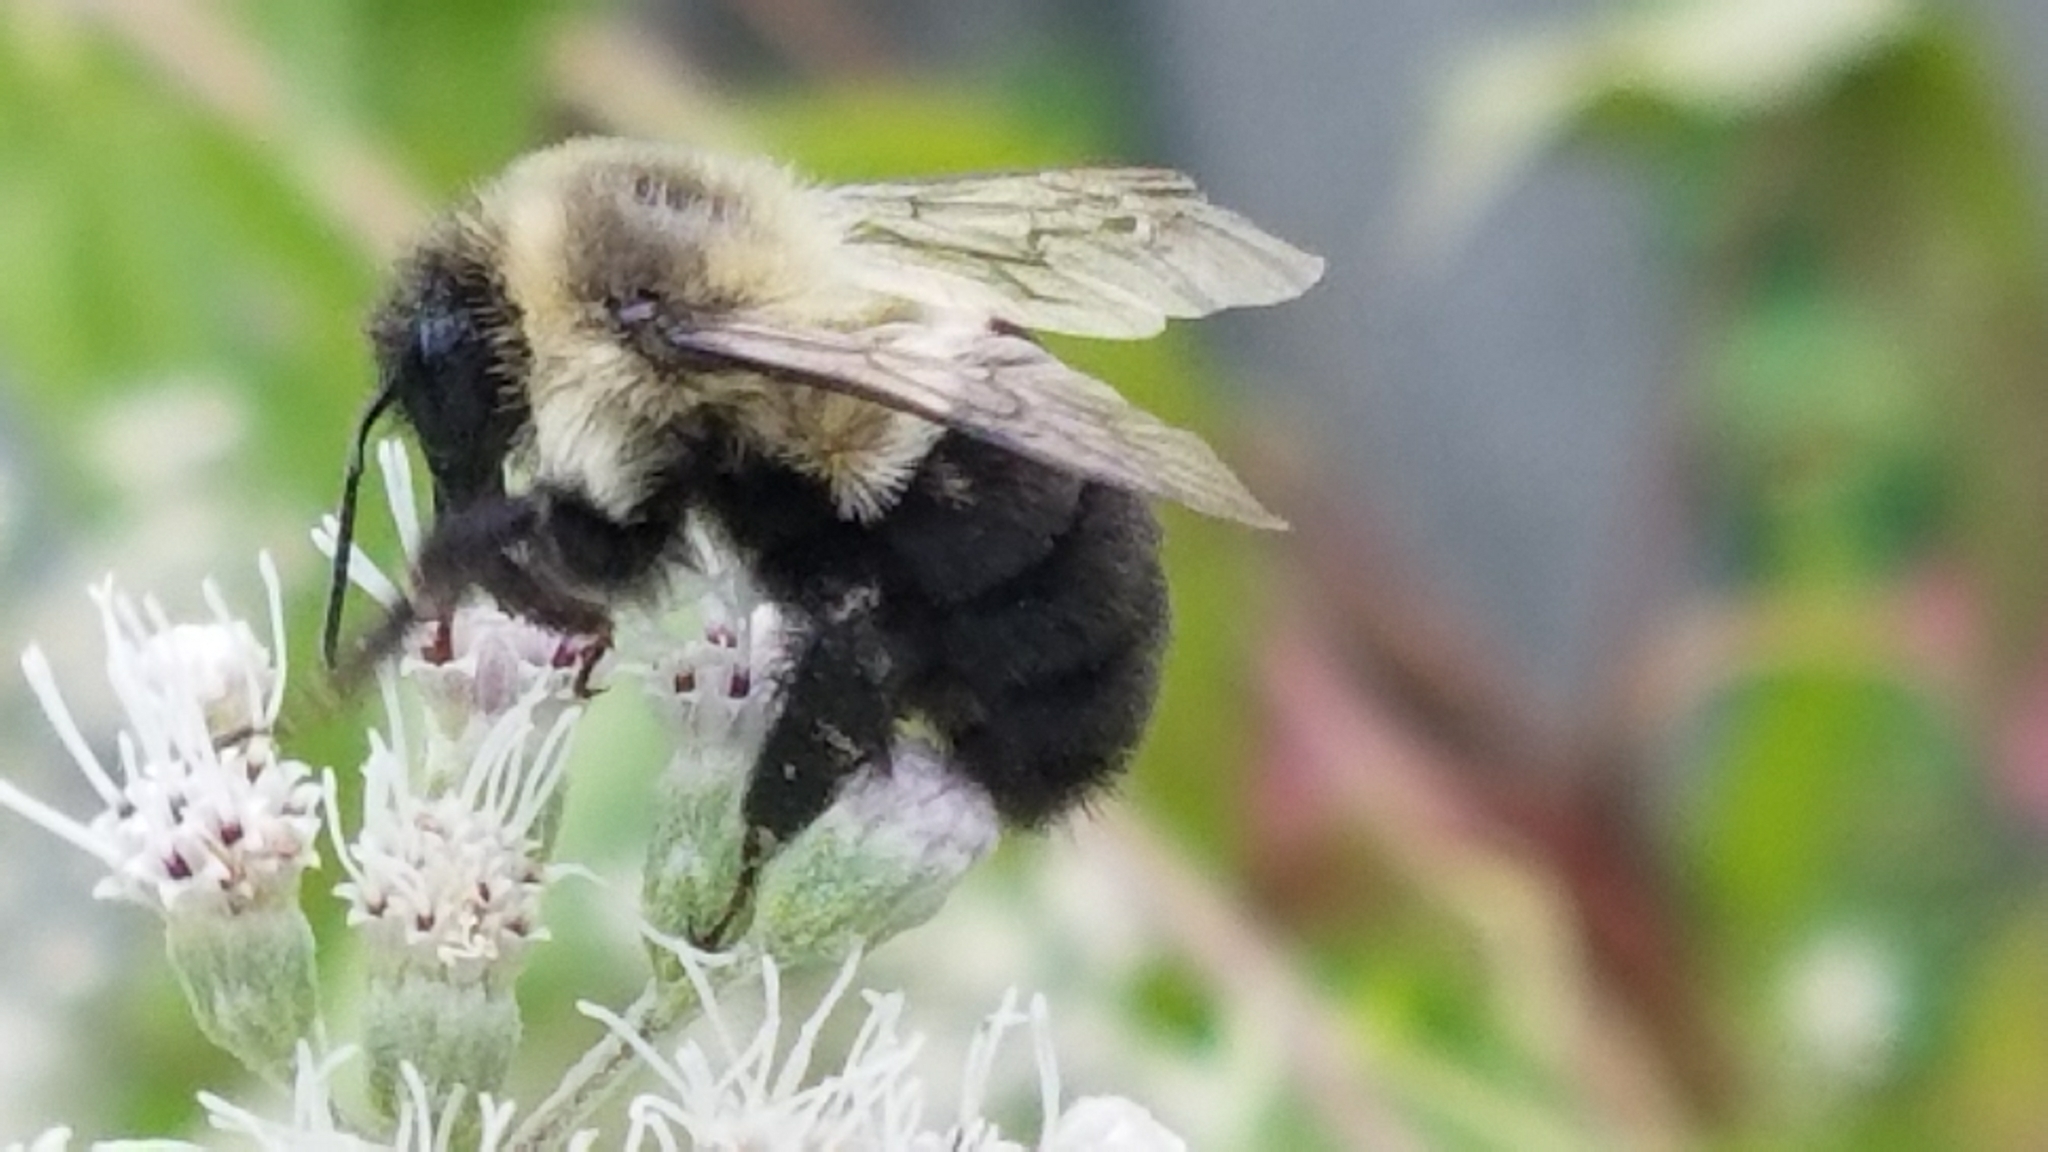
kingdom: Animalia
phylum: Arthropoda
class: Insecta
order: Hymenoptera
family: Apidae
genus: Bombus
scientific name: Bombus impatiens
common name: Common eastern bumble bee
